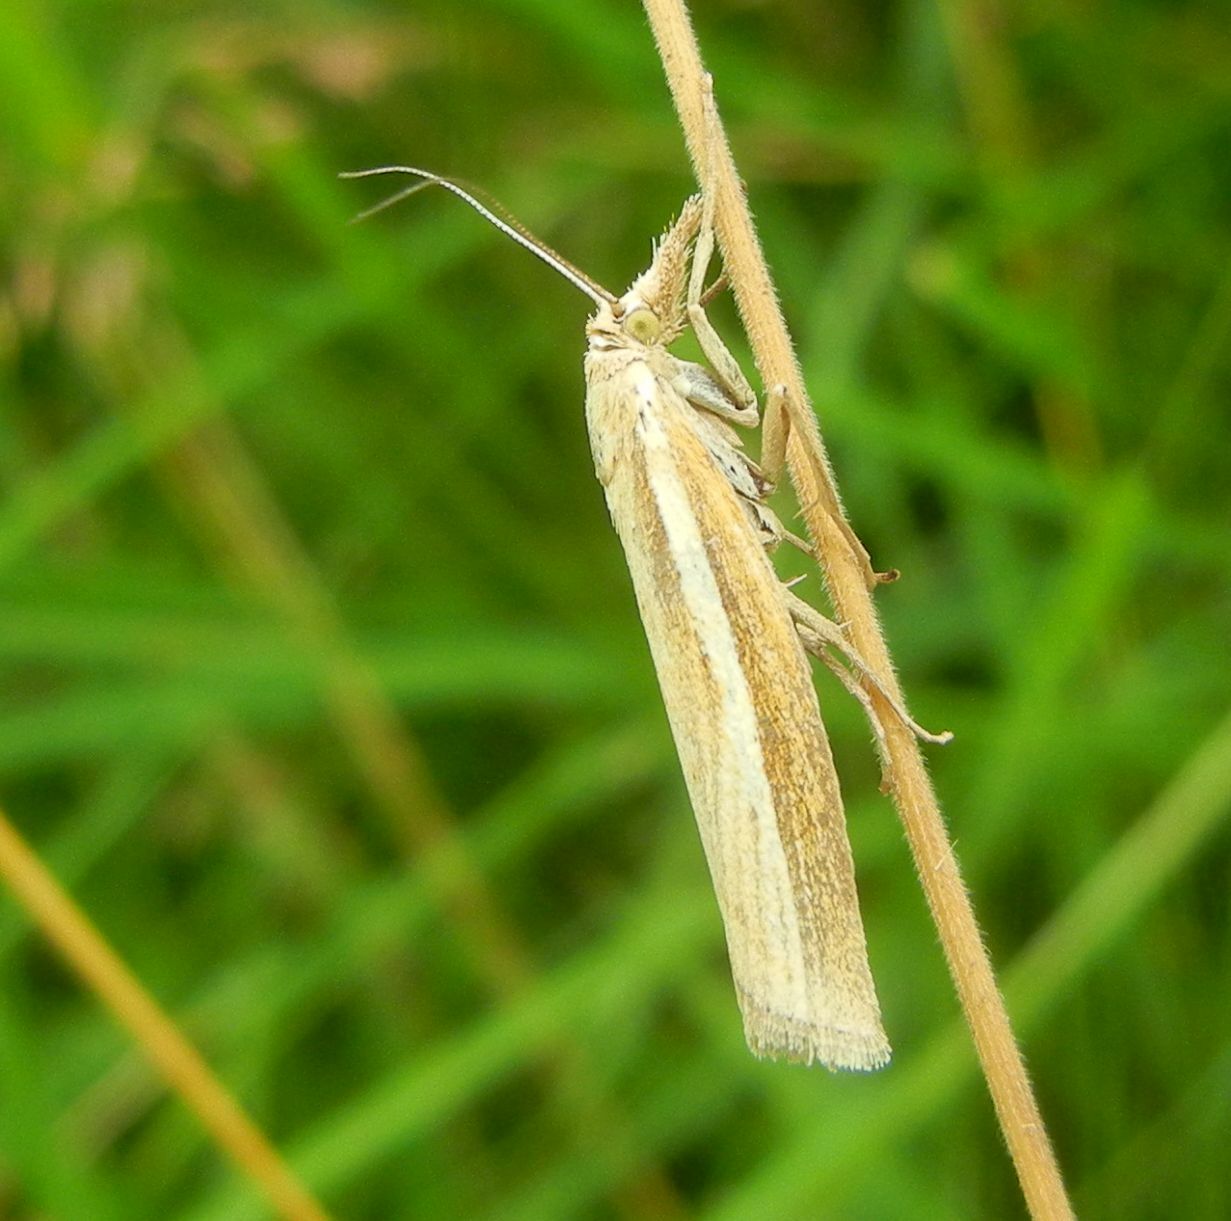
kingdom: Animalia
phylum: Arthropoda
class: Insecta
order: Lepidoptera
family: Crambidae
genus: Agriphila
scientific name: Agriphila tristellus
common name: Common grass-veneer
